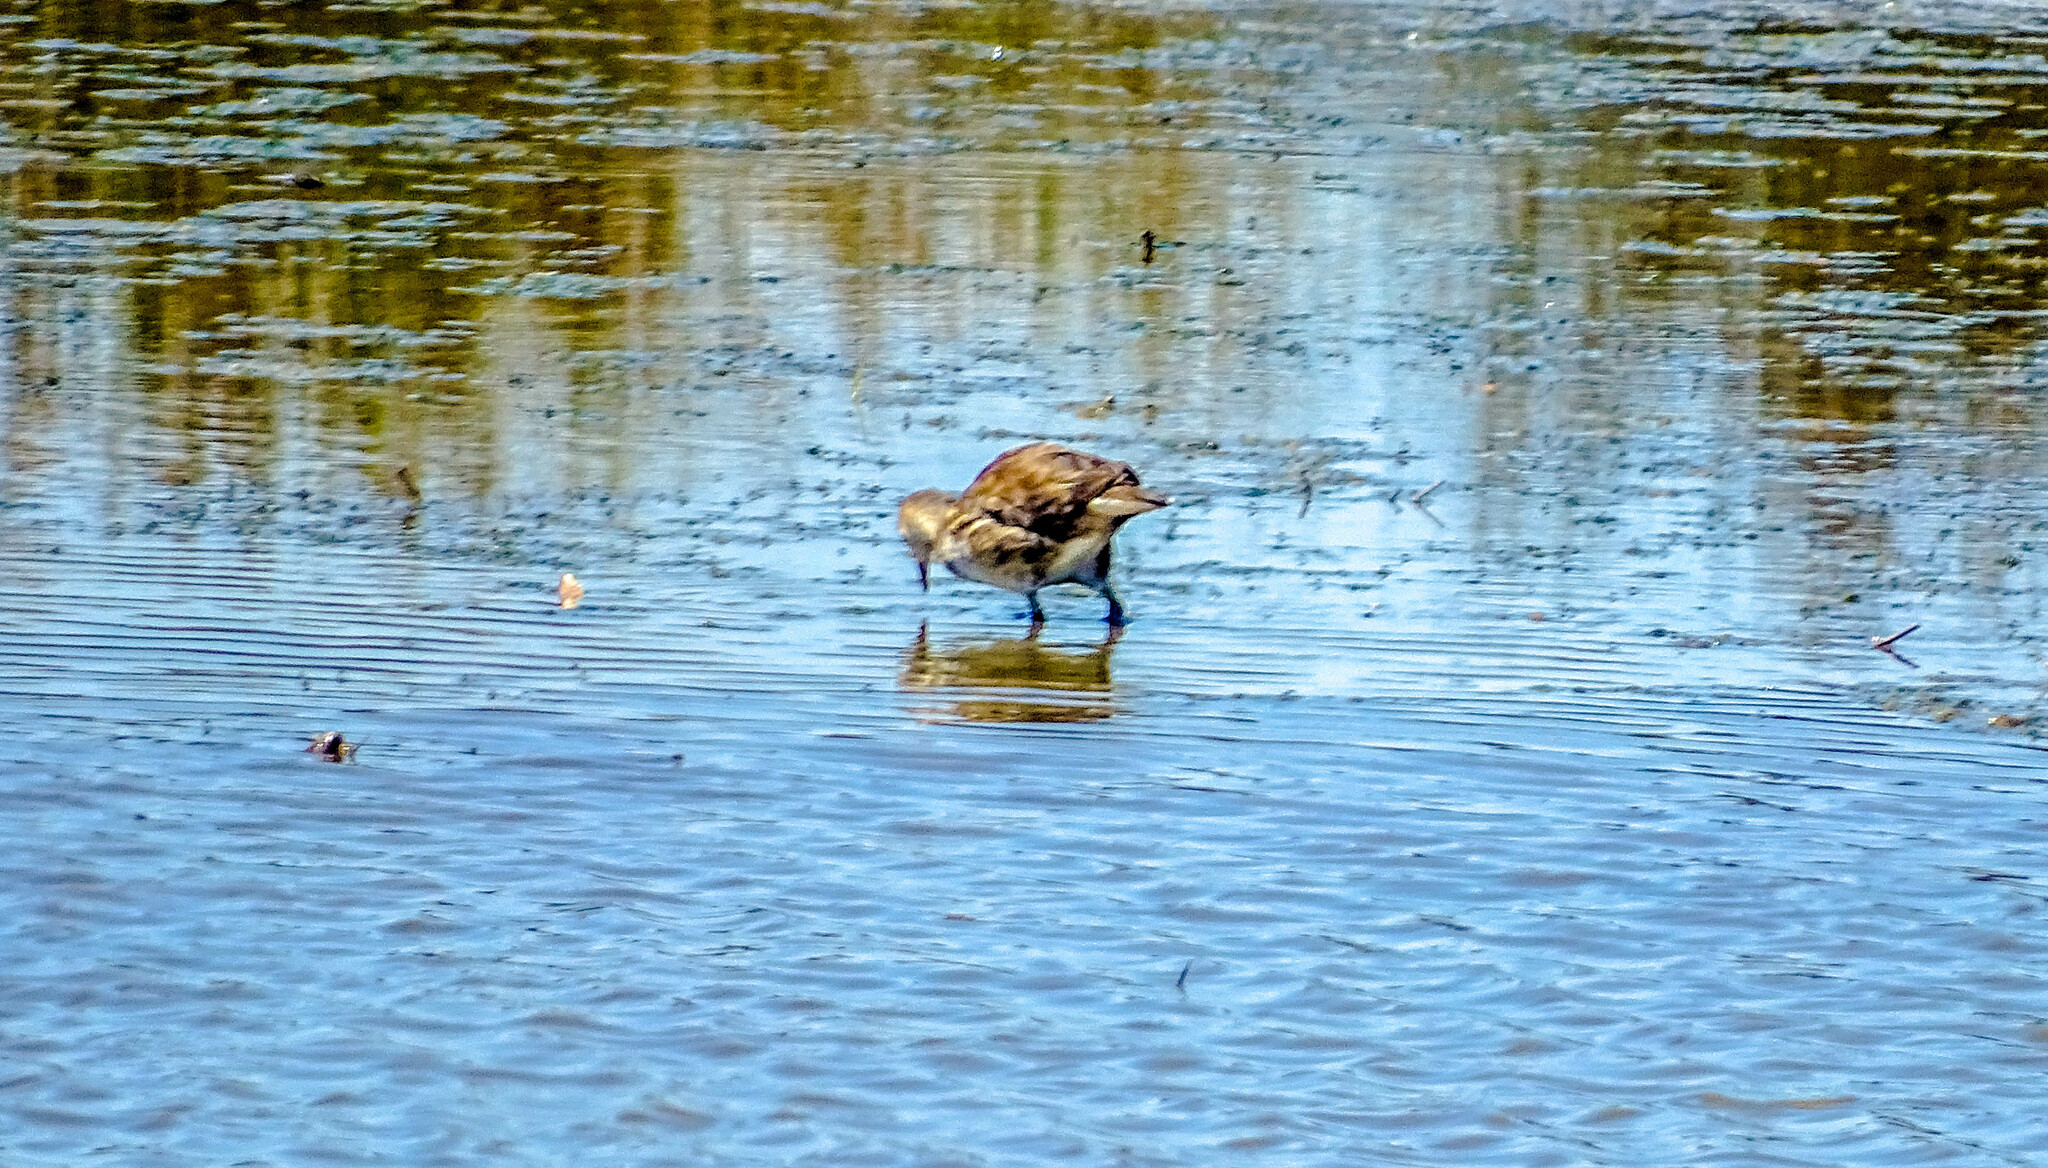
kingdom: Animalia
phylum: Chordata
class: Aves
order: Gruiformes
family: Rallidae
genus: Gallinula
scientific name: Gallinula chloropus
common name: Common moorhen
